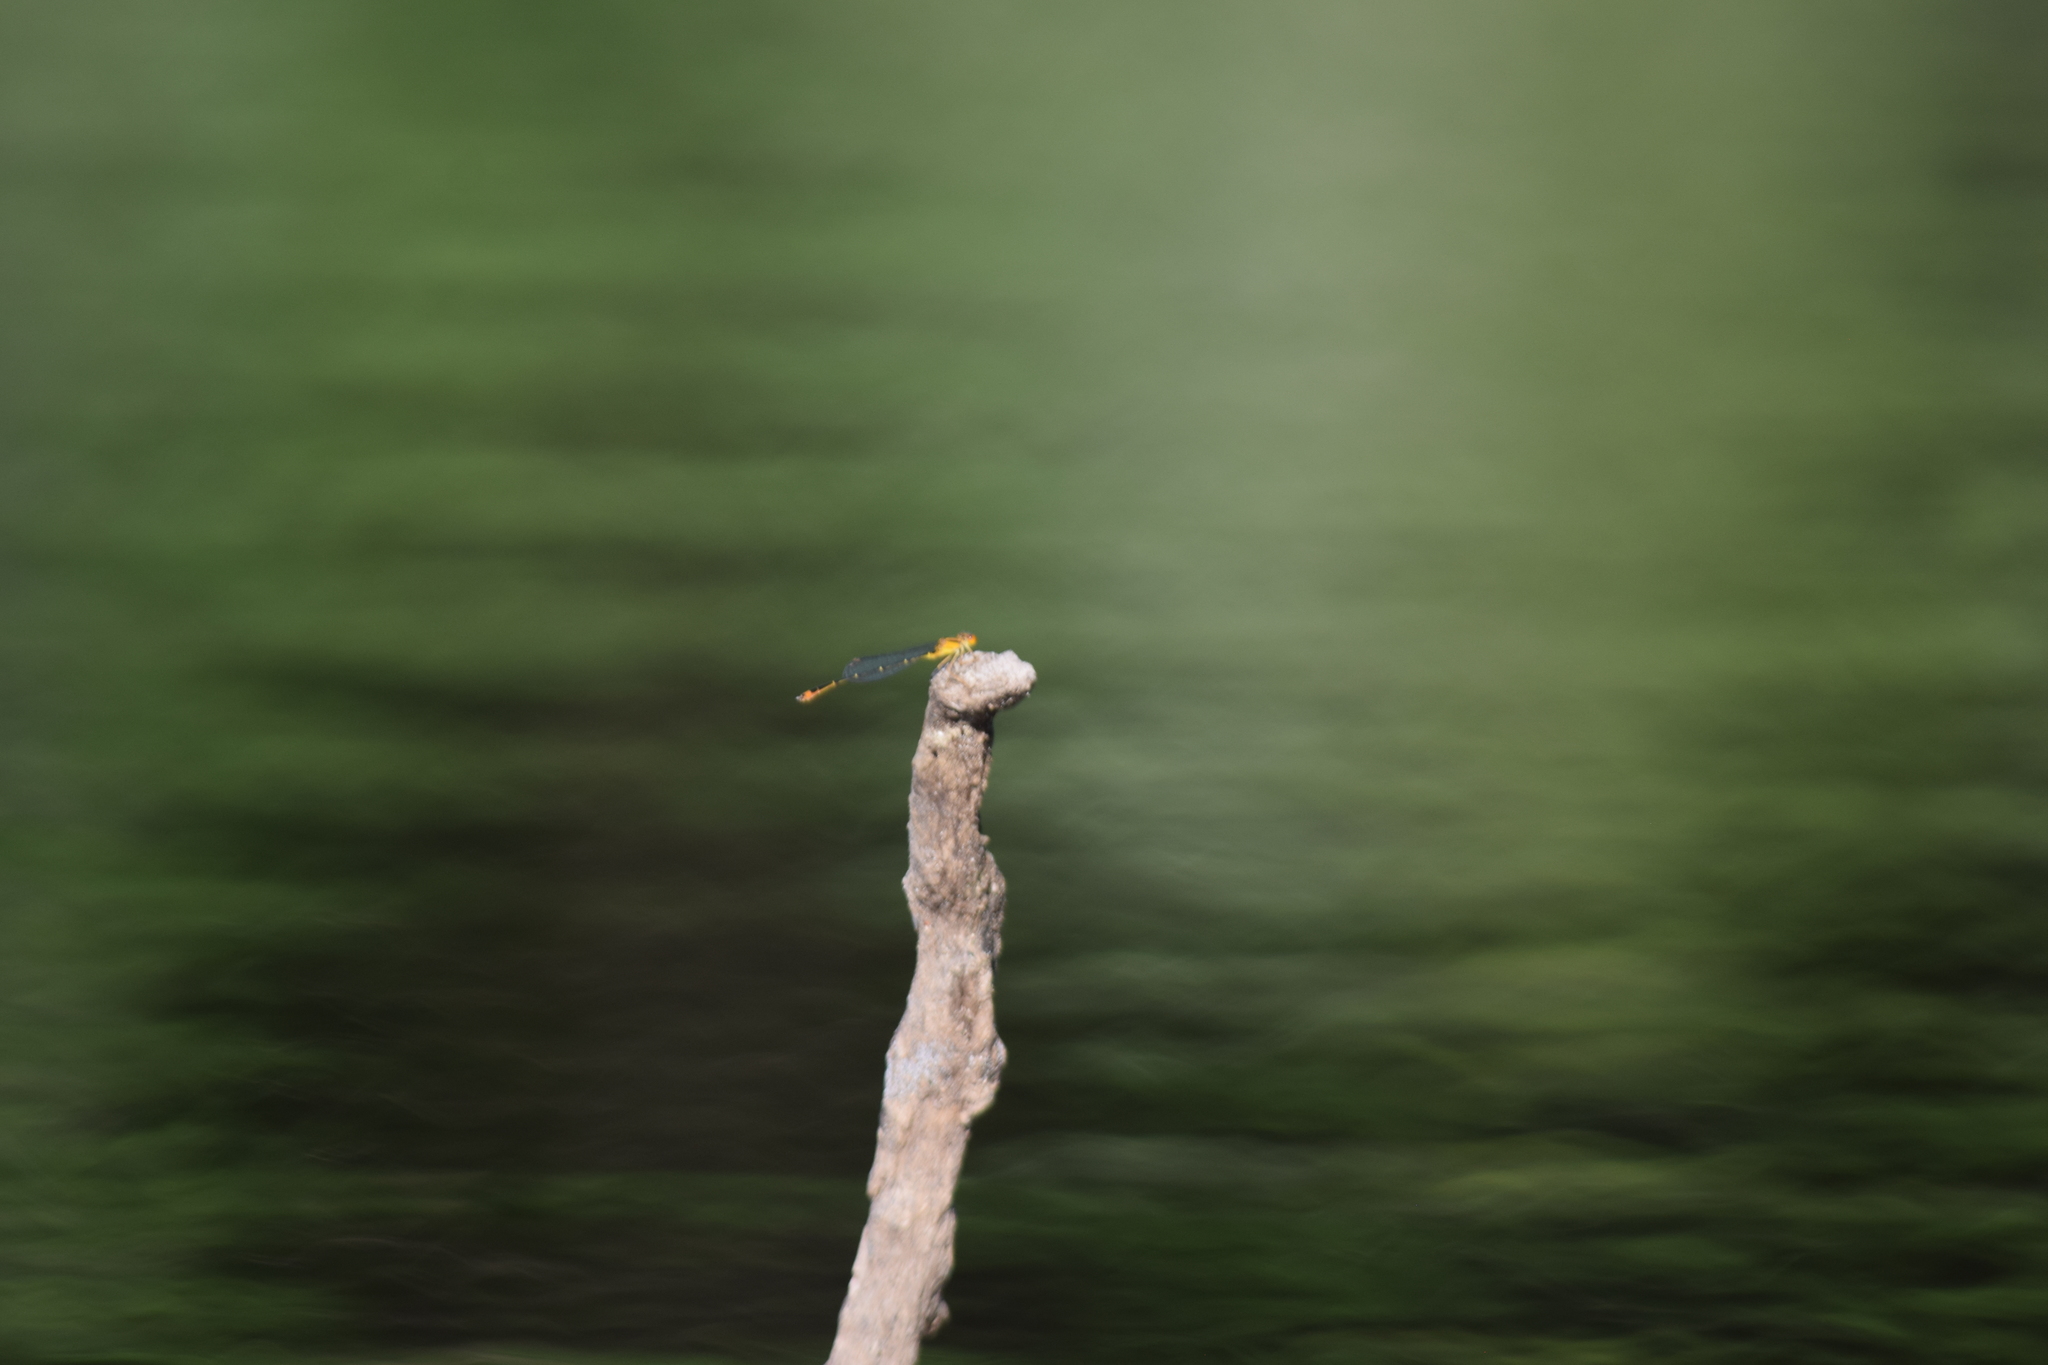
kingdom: Animalia
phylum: Arthropoda
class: Insecta
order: Odonata
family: Coenagrionidae
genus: Enallagma
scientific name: Enallagma signatum
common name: Orange bluet
